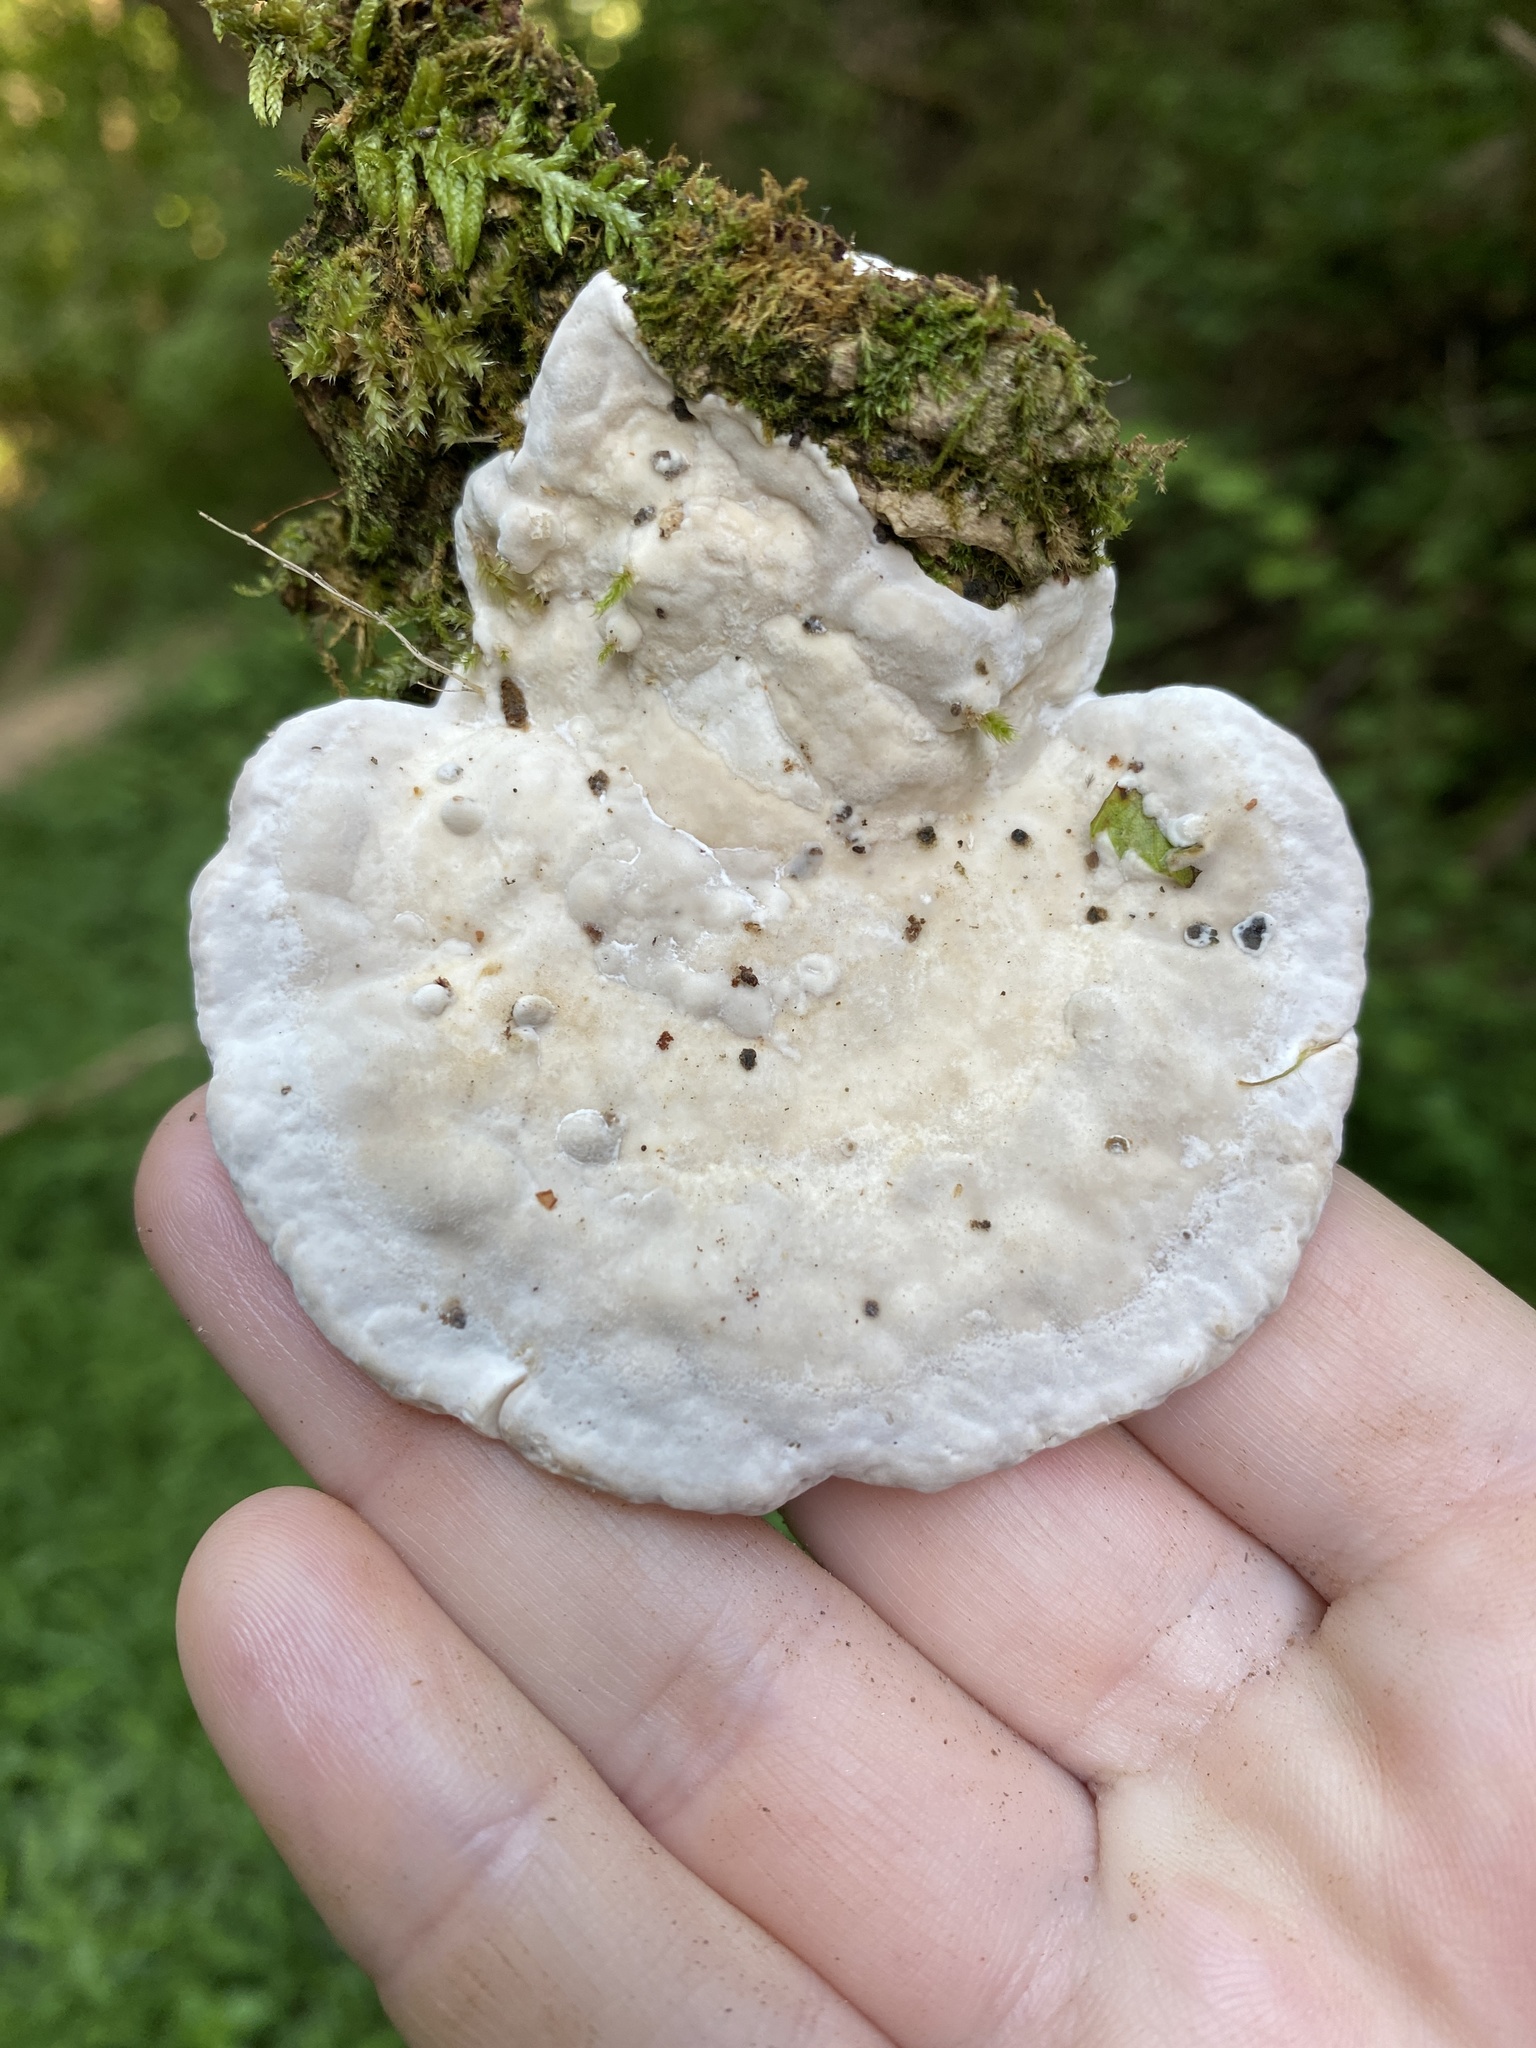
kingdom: Fungi
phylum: Basidiomycota
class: Agaricomycetes
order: Polyporales
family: Polyporaceae
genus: Trametes
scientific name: Trametes gibbosa
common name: Lumpy bracket
